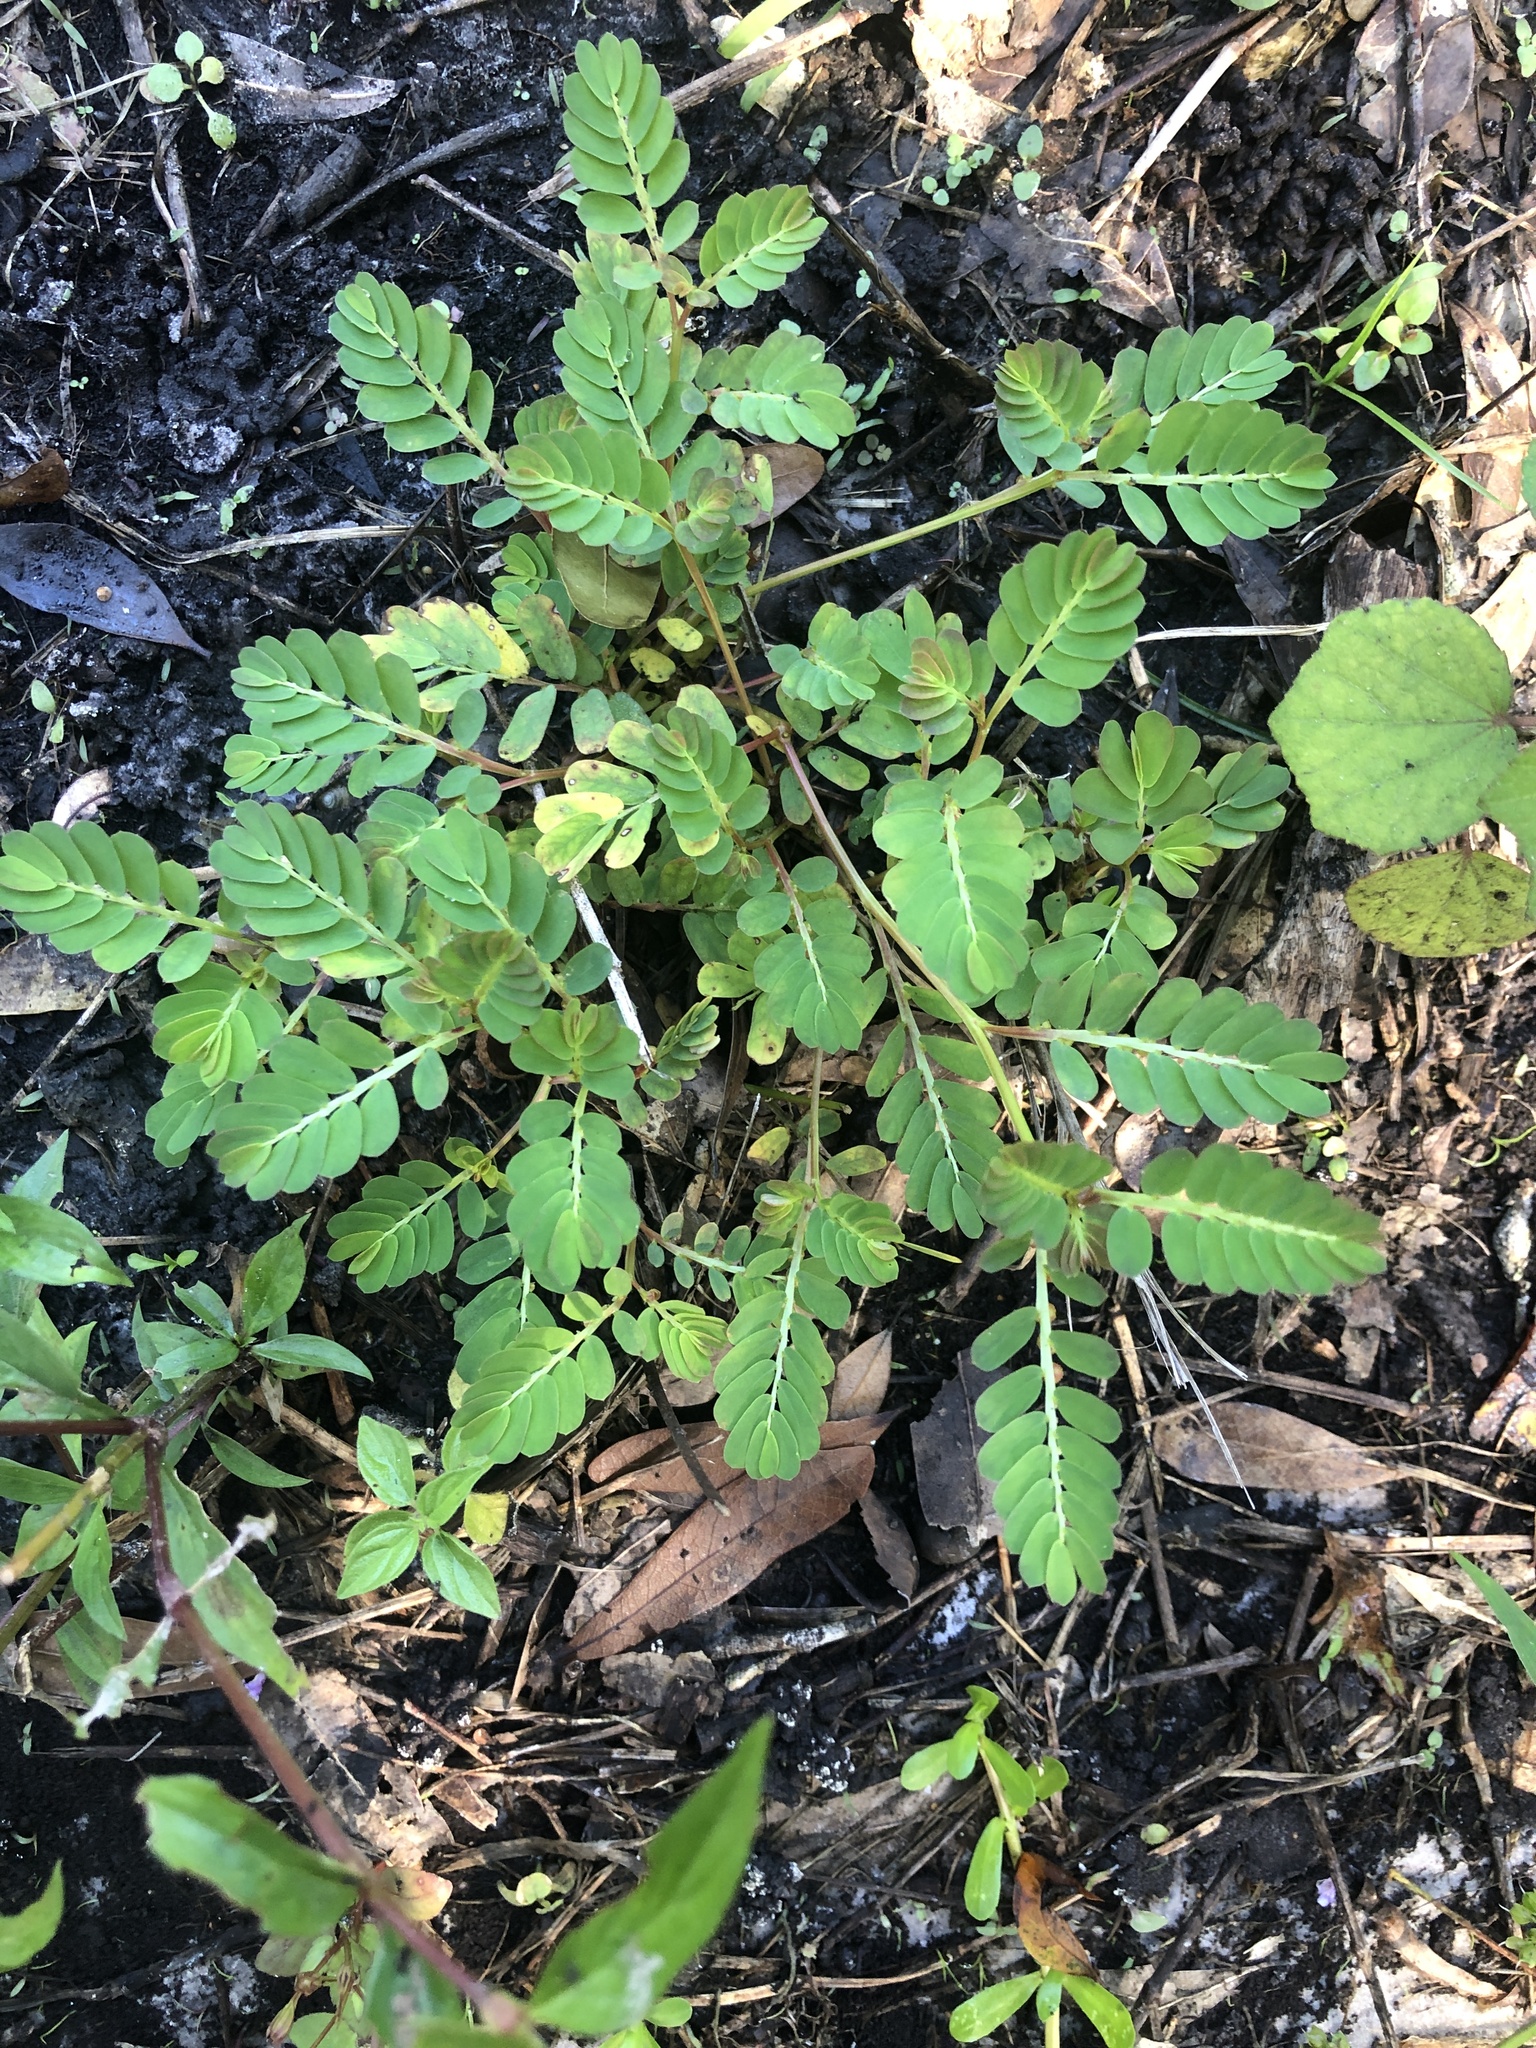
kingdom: Plantae
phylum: Tracheophyta
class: Magnoliopsida
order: Malpighiales
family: Phyllanthaceae
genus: Phyllanthus
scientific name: Phyllanthus urinaria
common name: Chamber bitter
